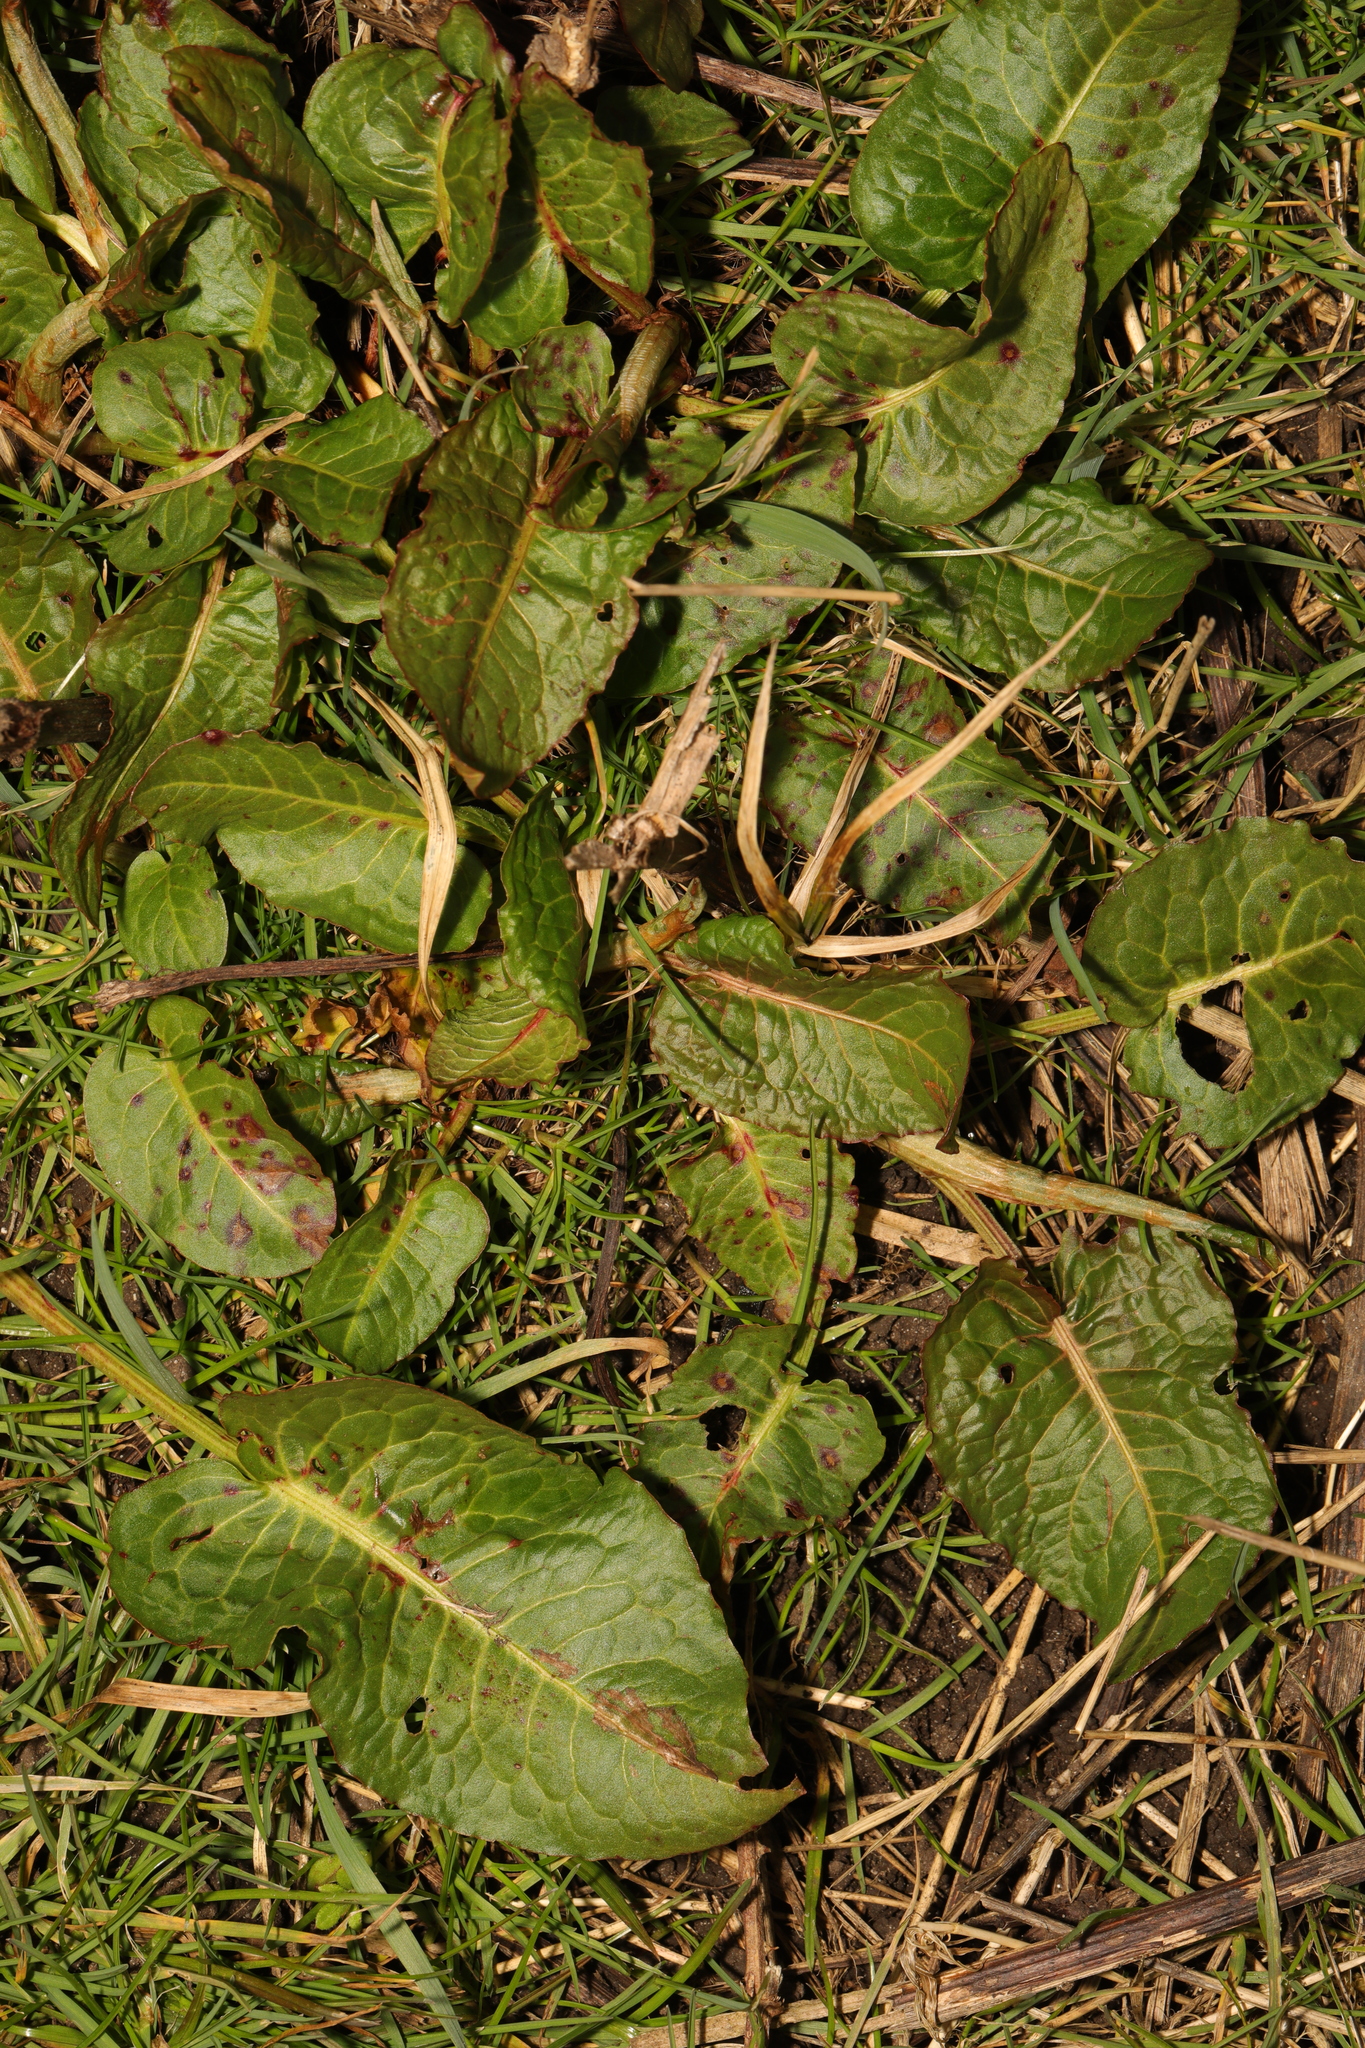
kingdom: Plantae
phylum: Tracheophyta
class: Magnoliopsida
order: Caryophyllales
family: Polygonaceae
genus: Rumex
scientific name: Rumex obtusifolius
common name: Bitter dock
